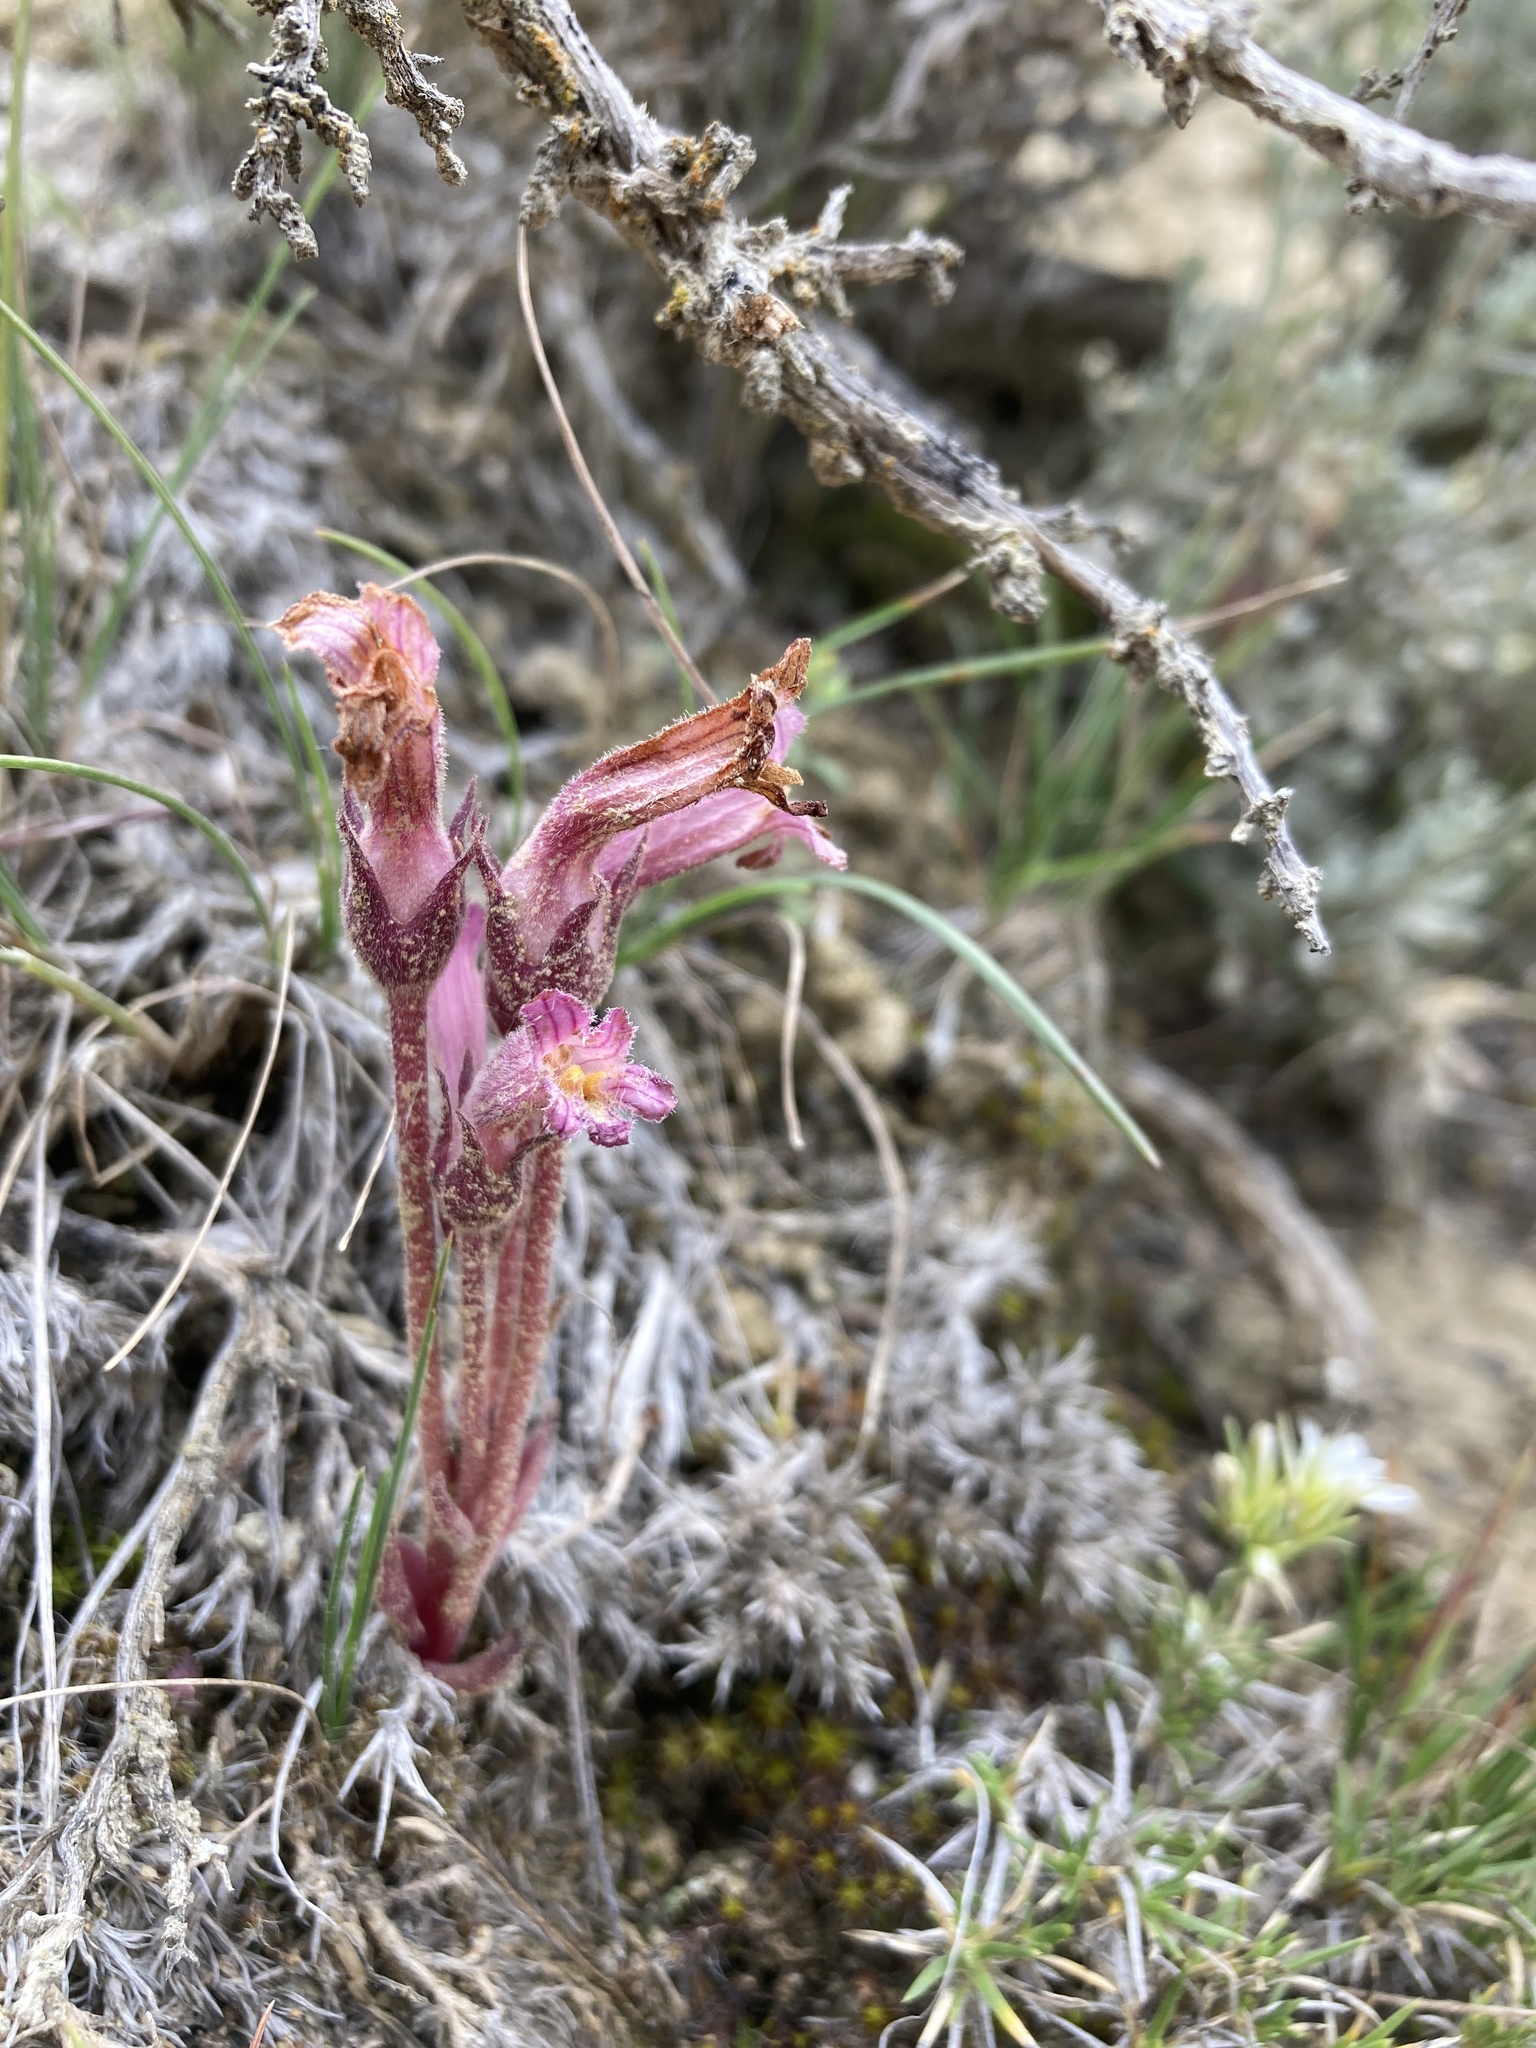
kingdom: Plantae
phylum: Tracheophyta
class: Magnoliopsida
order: Lamiales
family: Orobanchaceae
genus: Aphyllon
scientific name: Aphyllon fasciculatum
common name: Clustered broomrape
